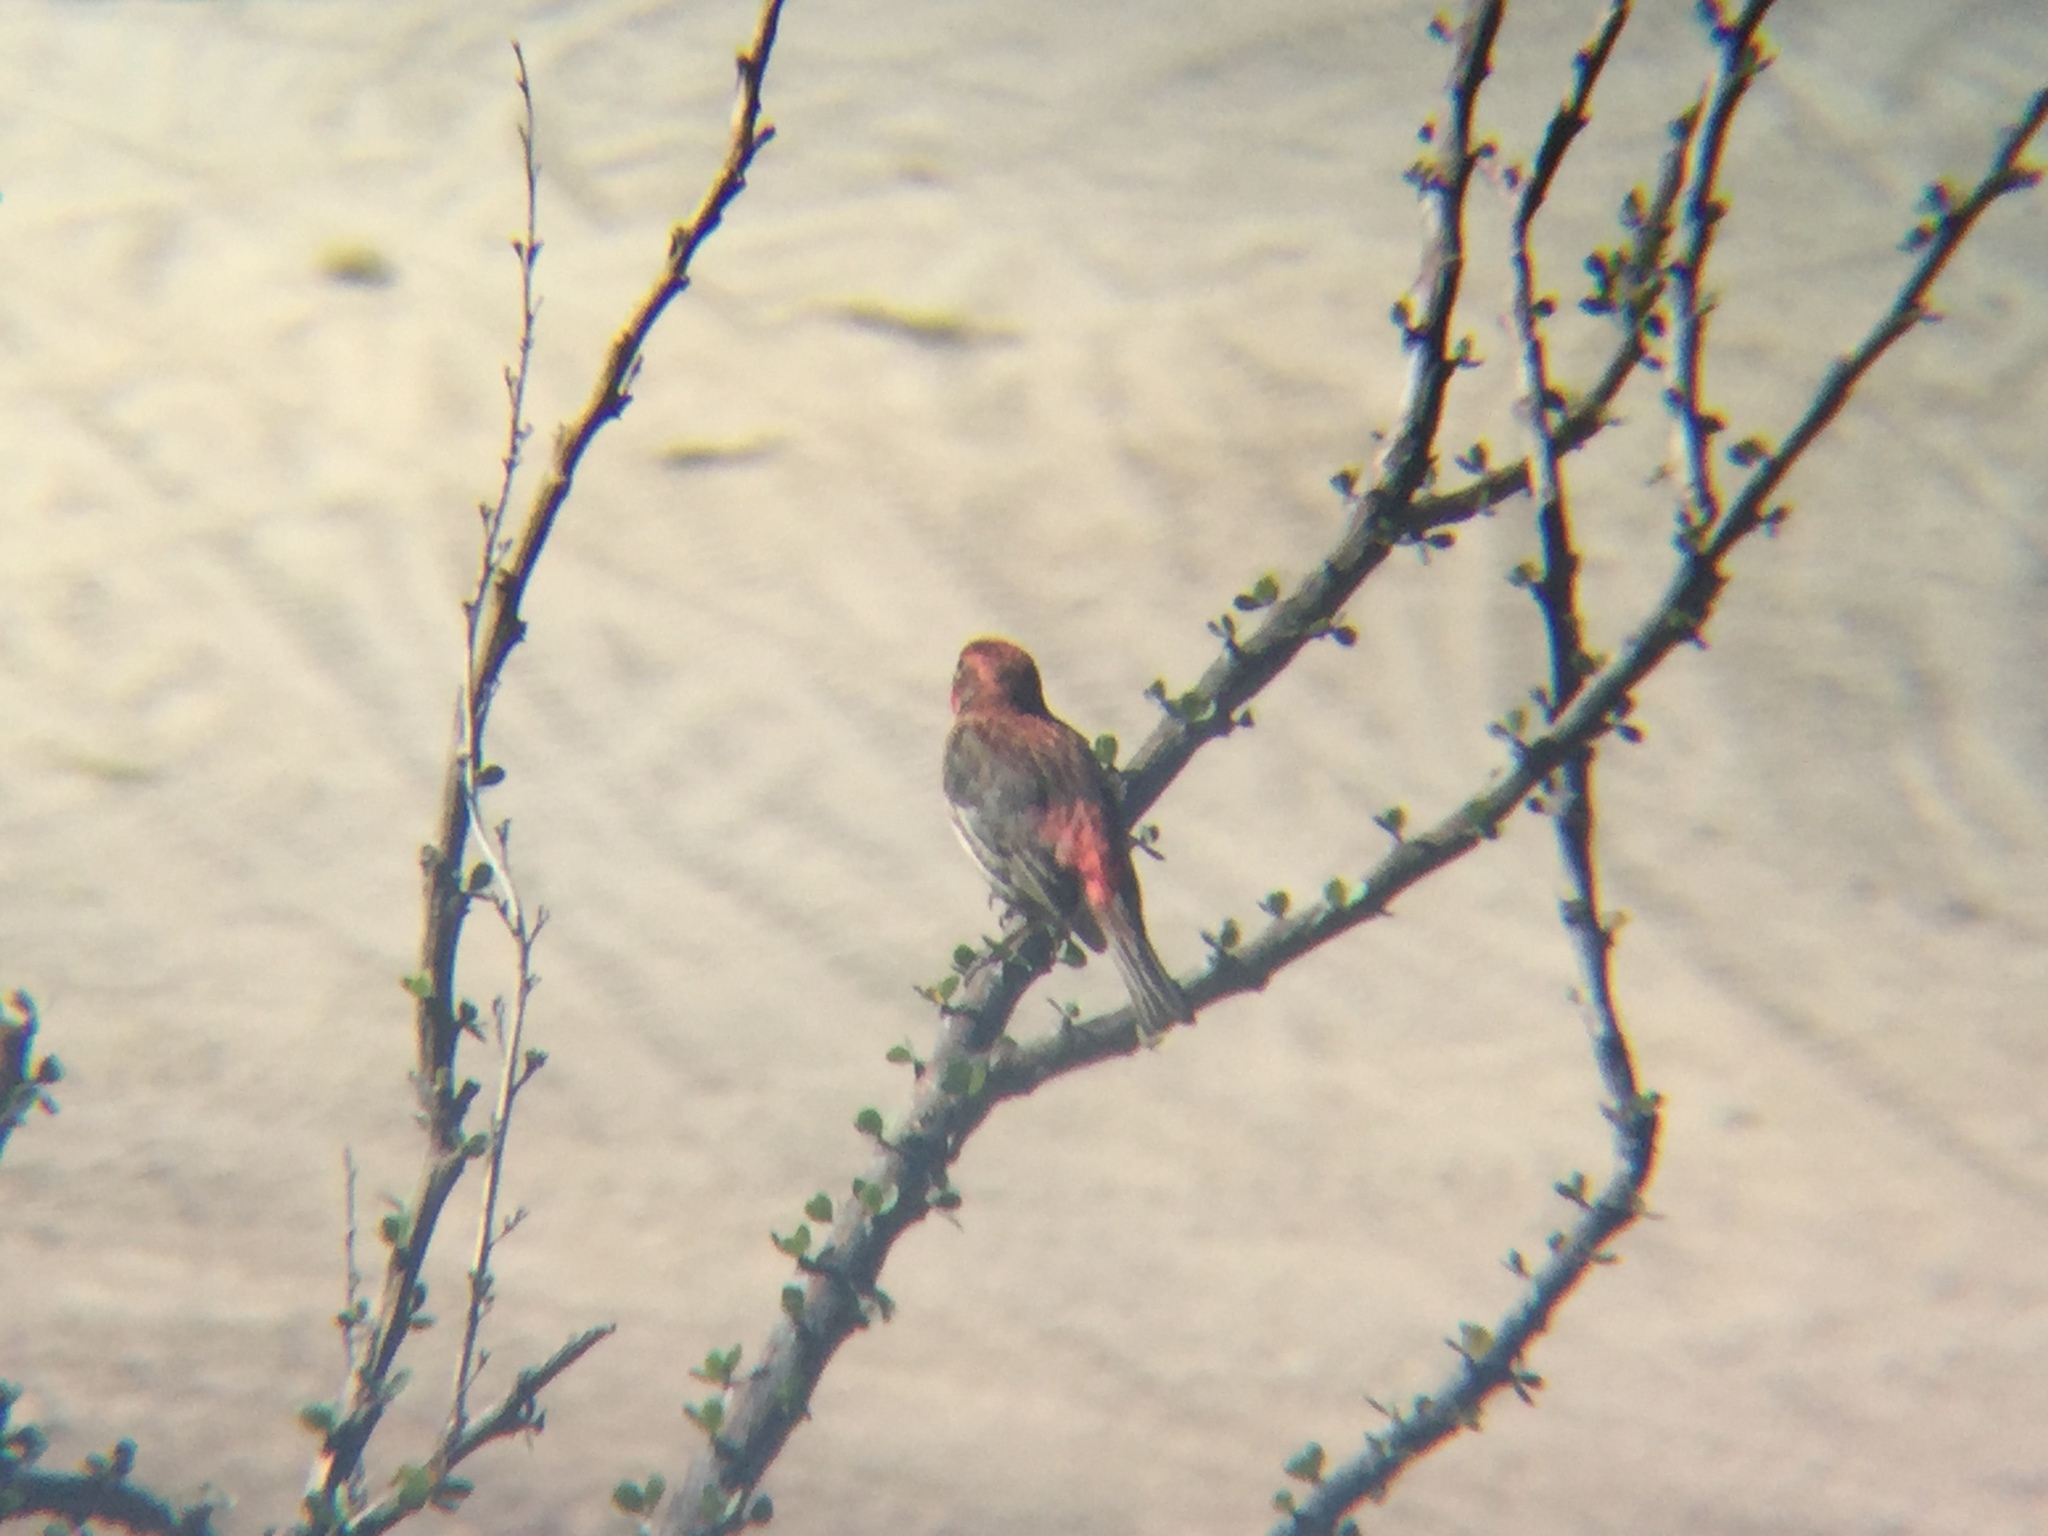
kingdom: Animalia
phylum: Chordata
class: Aves
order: Passeriformes
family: Fringillidae
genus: Haemorhous
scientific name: Haemorhous mexicanus
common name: House finch
